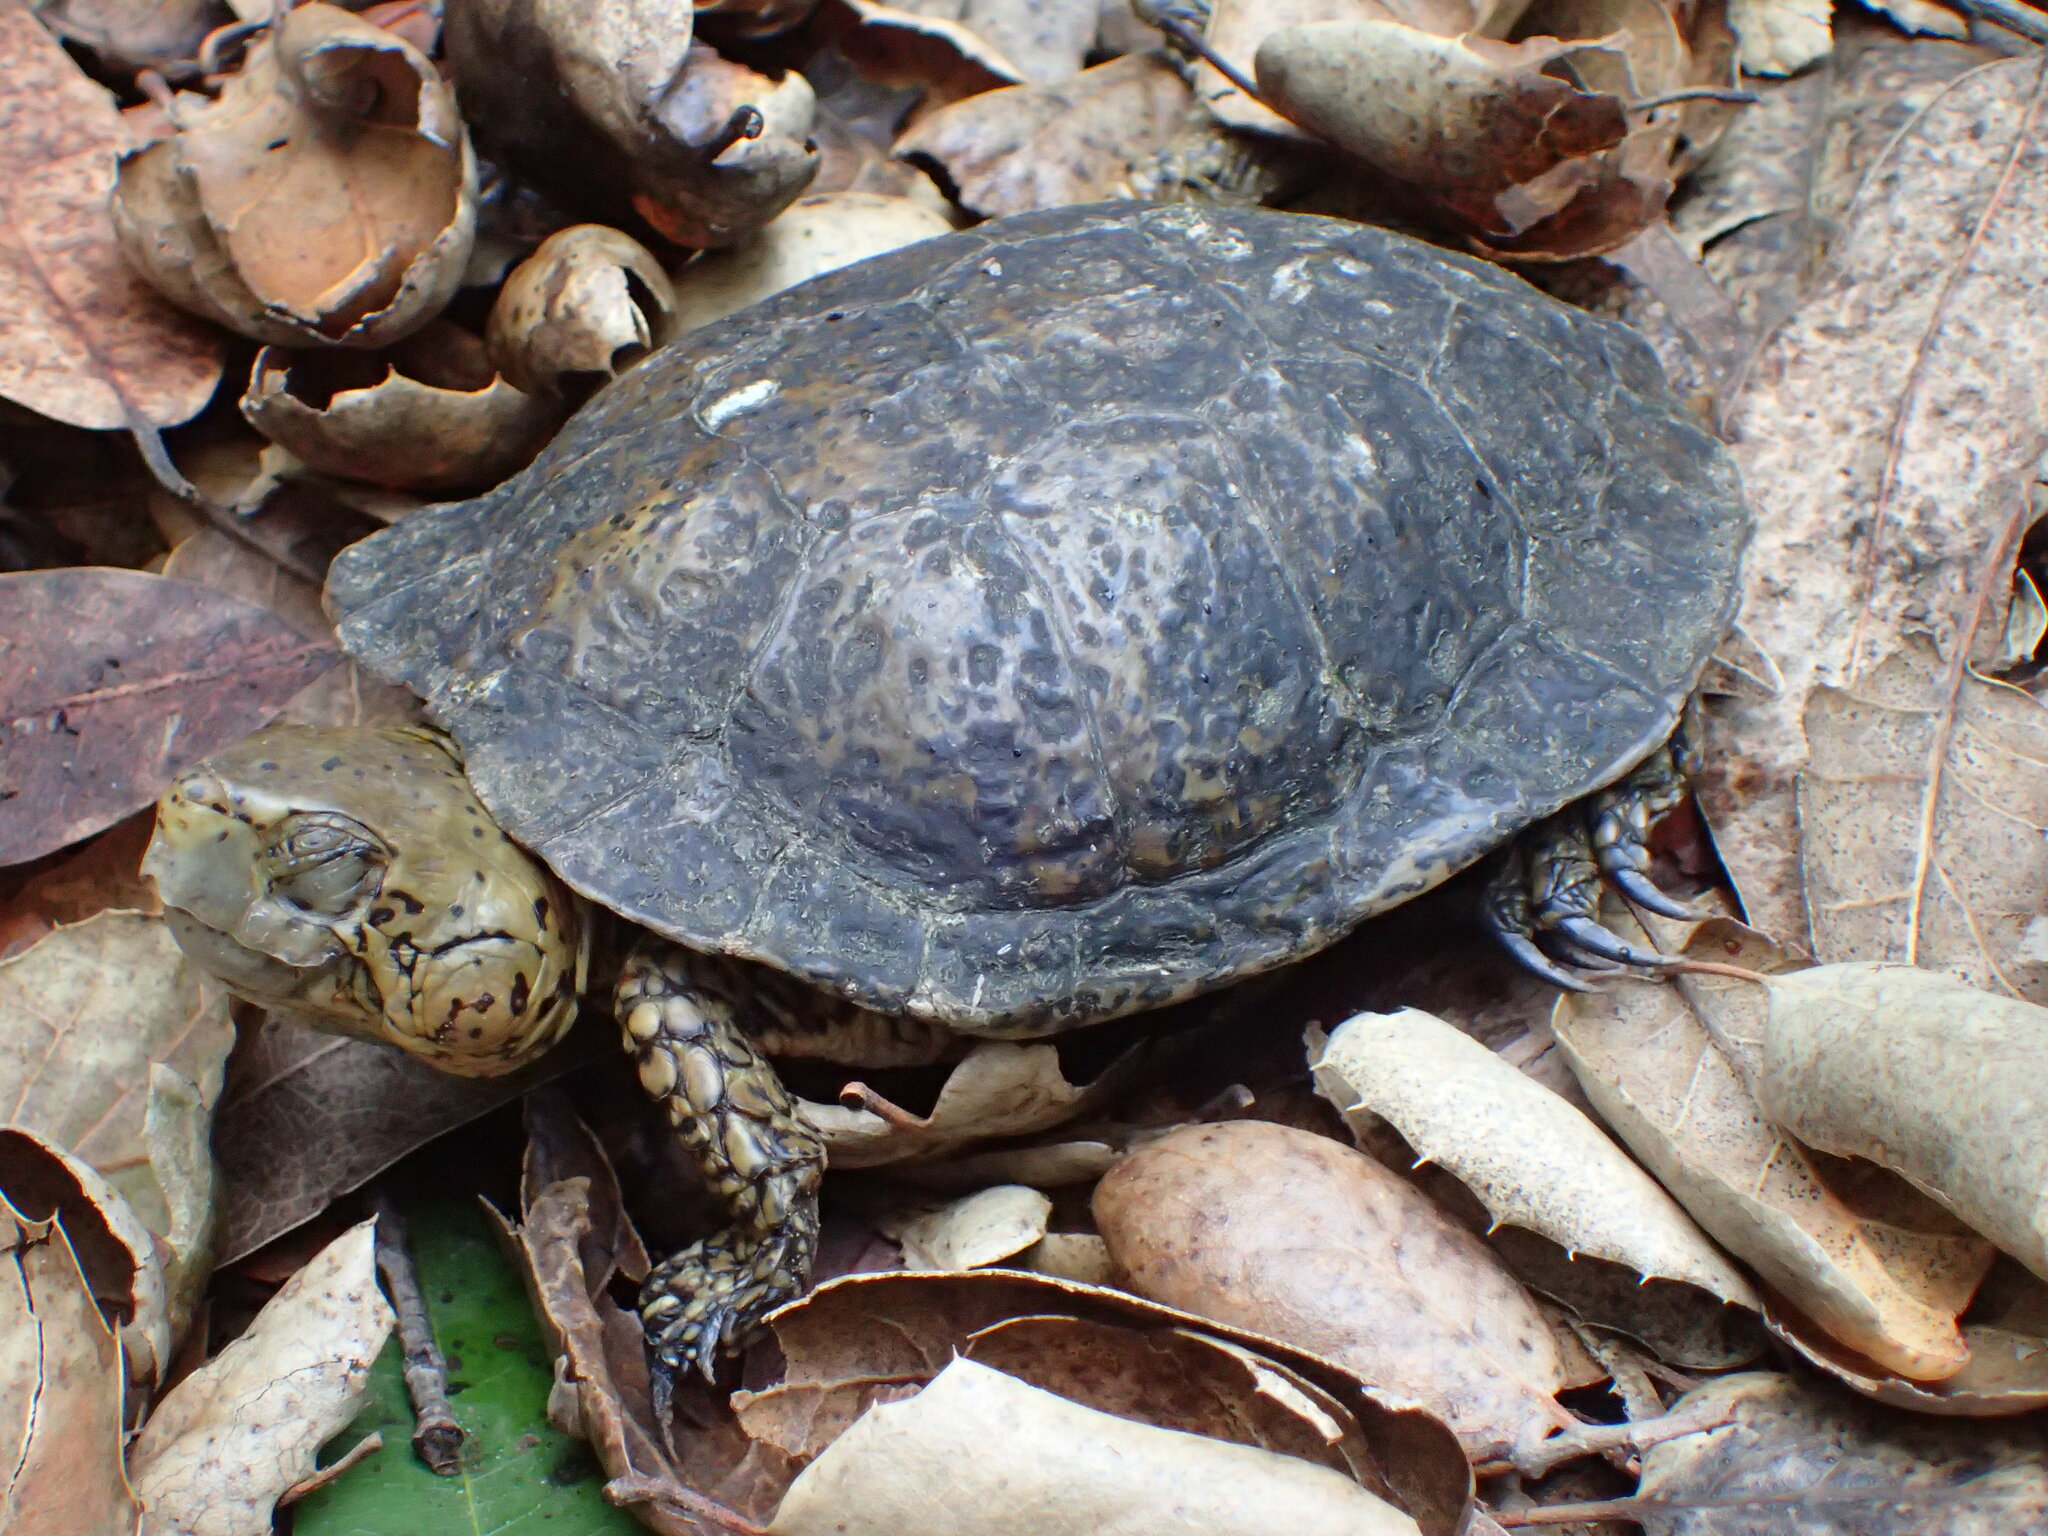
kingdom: Animalia
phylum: Chordata
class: Testudines
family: Emydidae
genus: Actinemys
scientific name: Actinemys marmorata
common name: Western pond turtle
